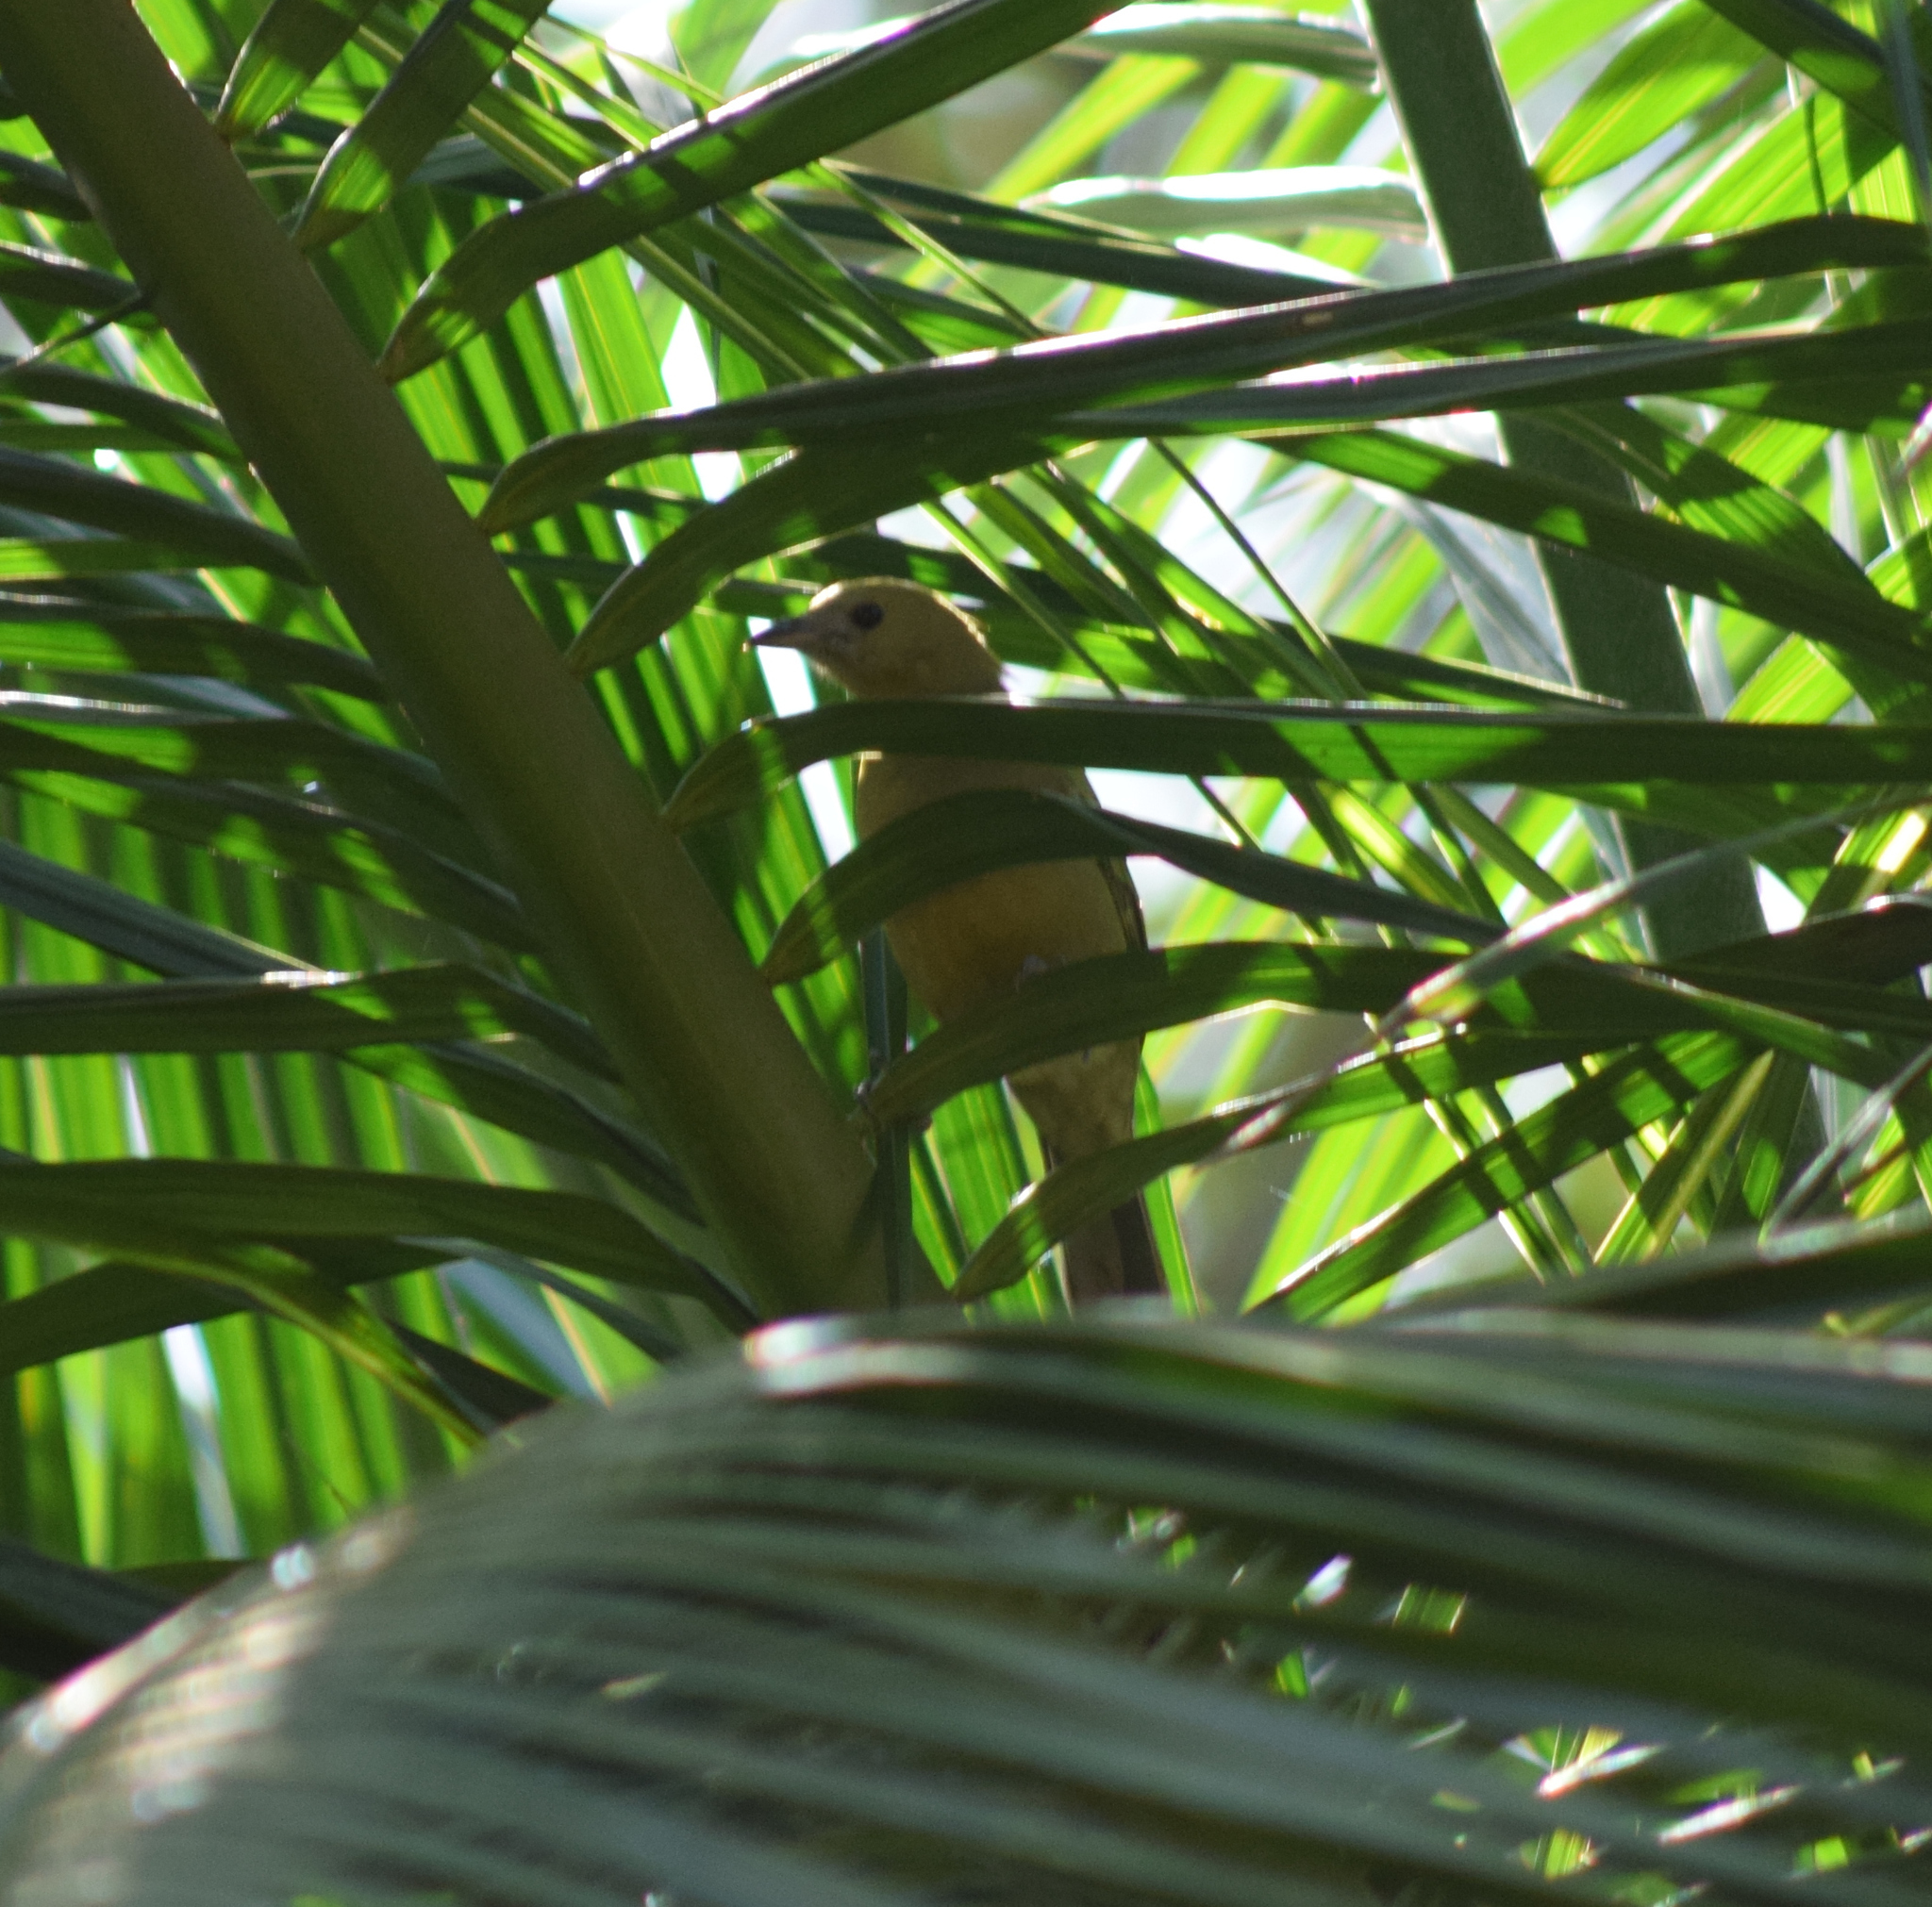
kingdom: Animalia
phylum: Chordata
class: Aves
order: Passeriformes
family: Thraupidae
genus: Thraupis
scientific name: Thraupis palmarum
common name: Palm tanager
